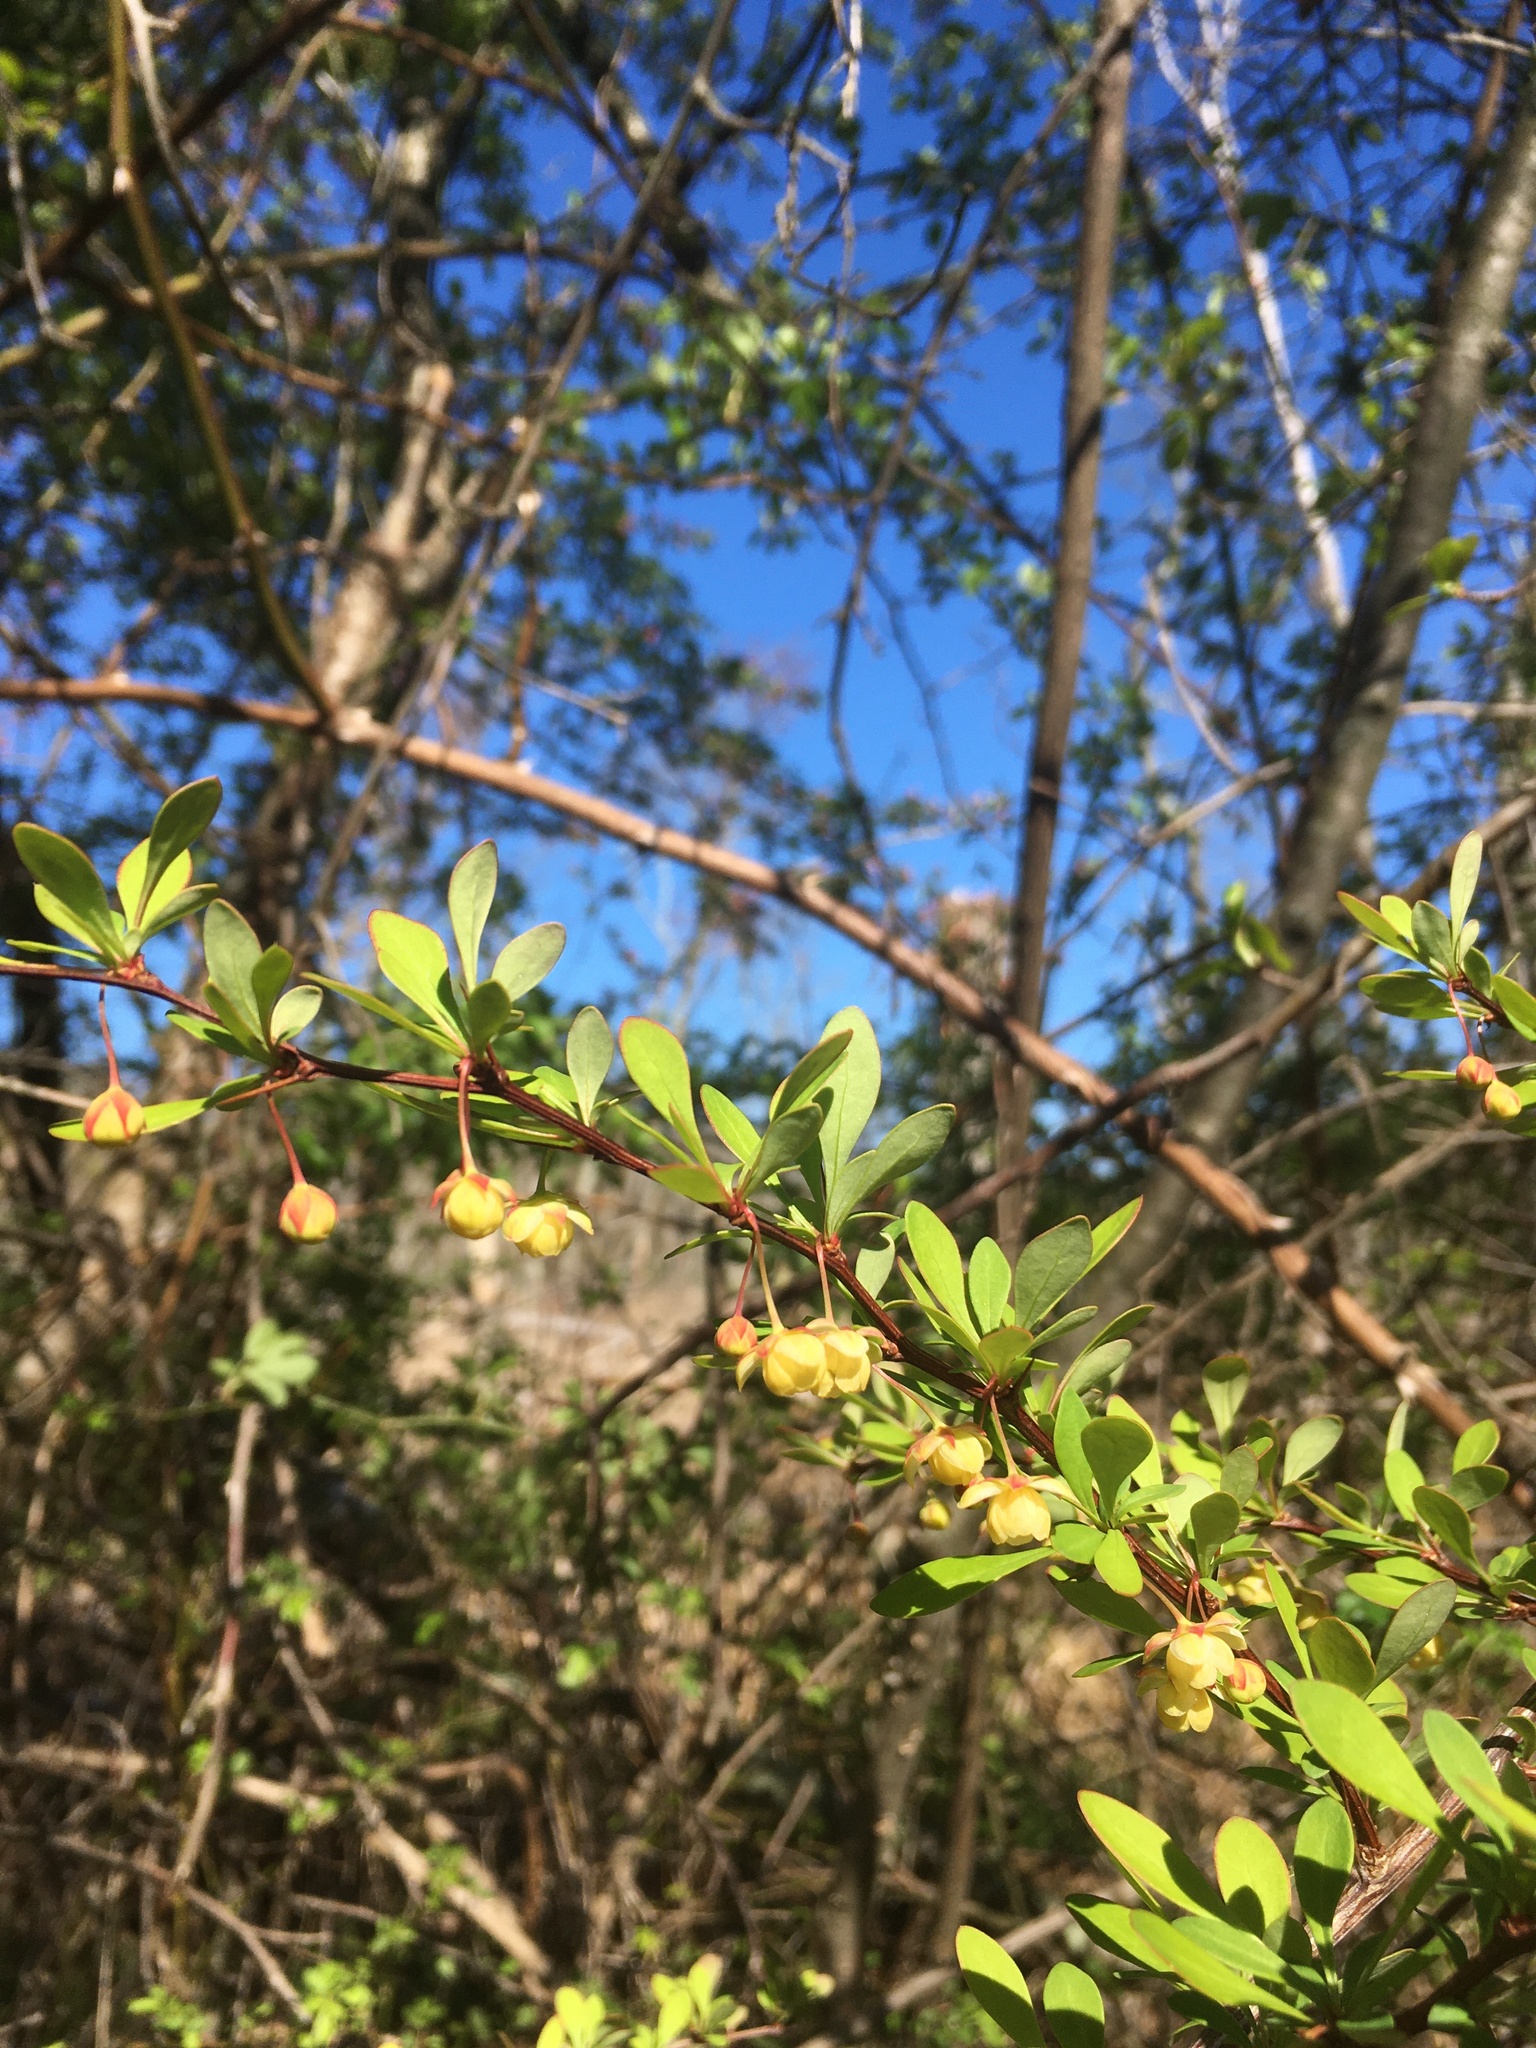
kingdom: Plantae
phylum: Tracheophyta
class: Magnoliopsida
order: Ranunculales
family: Berberidaceae
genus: Berberis
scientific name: Berberis thunbergii
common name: Japanese barberry
